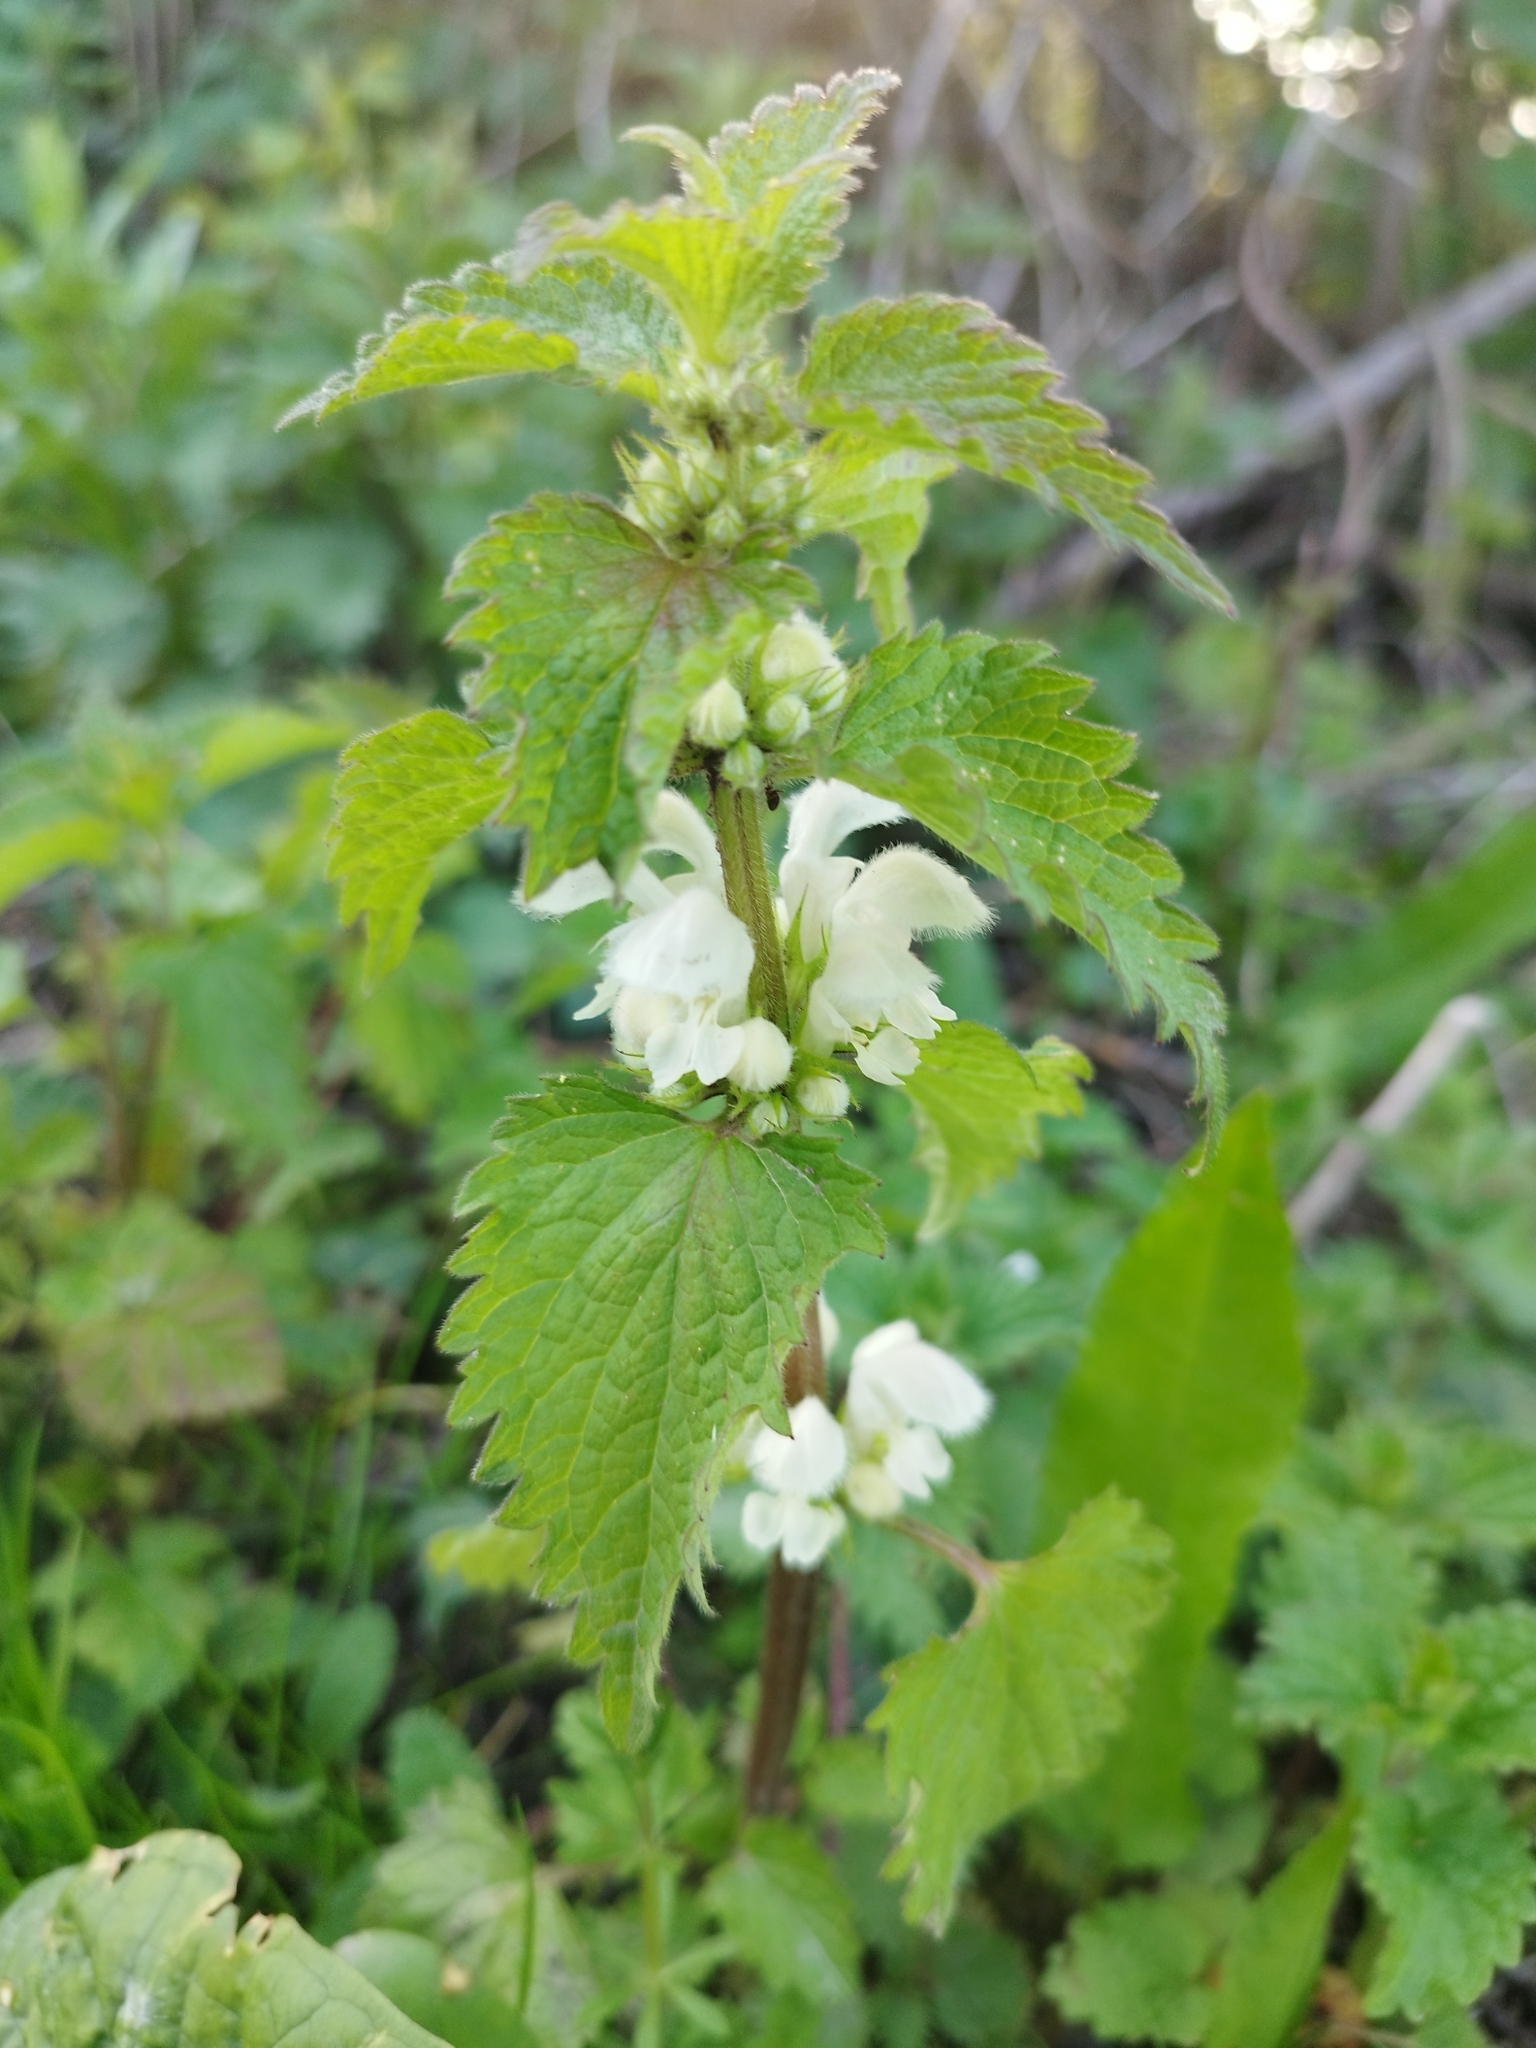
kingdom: Plantae
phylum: Tracheophyta
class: Magnoliopsida
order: Lamiales
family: Lamiaceae
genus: Lamium
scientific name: Lamium album
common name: White dead-nettle
